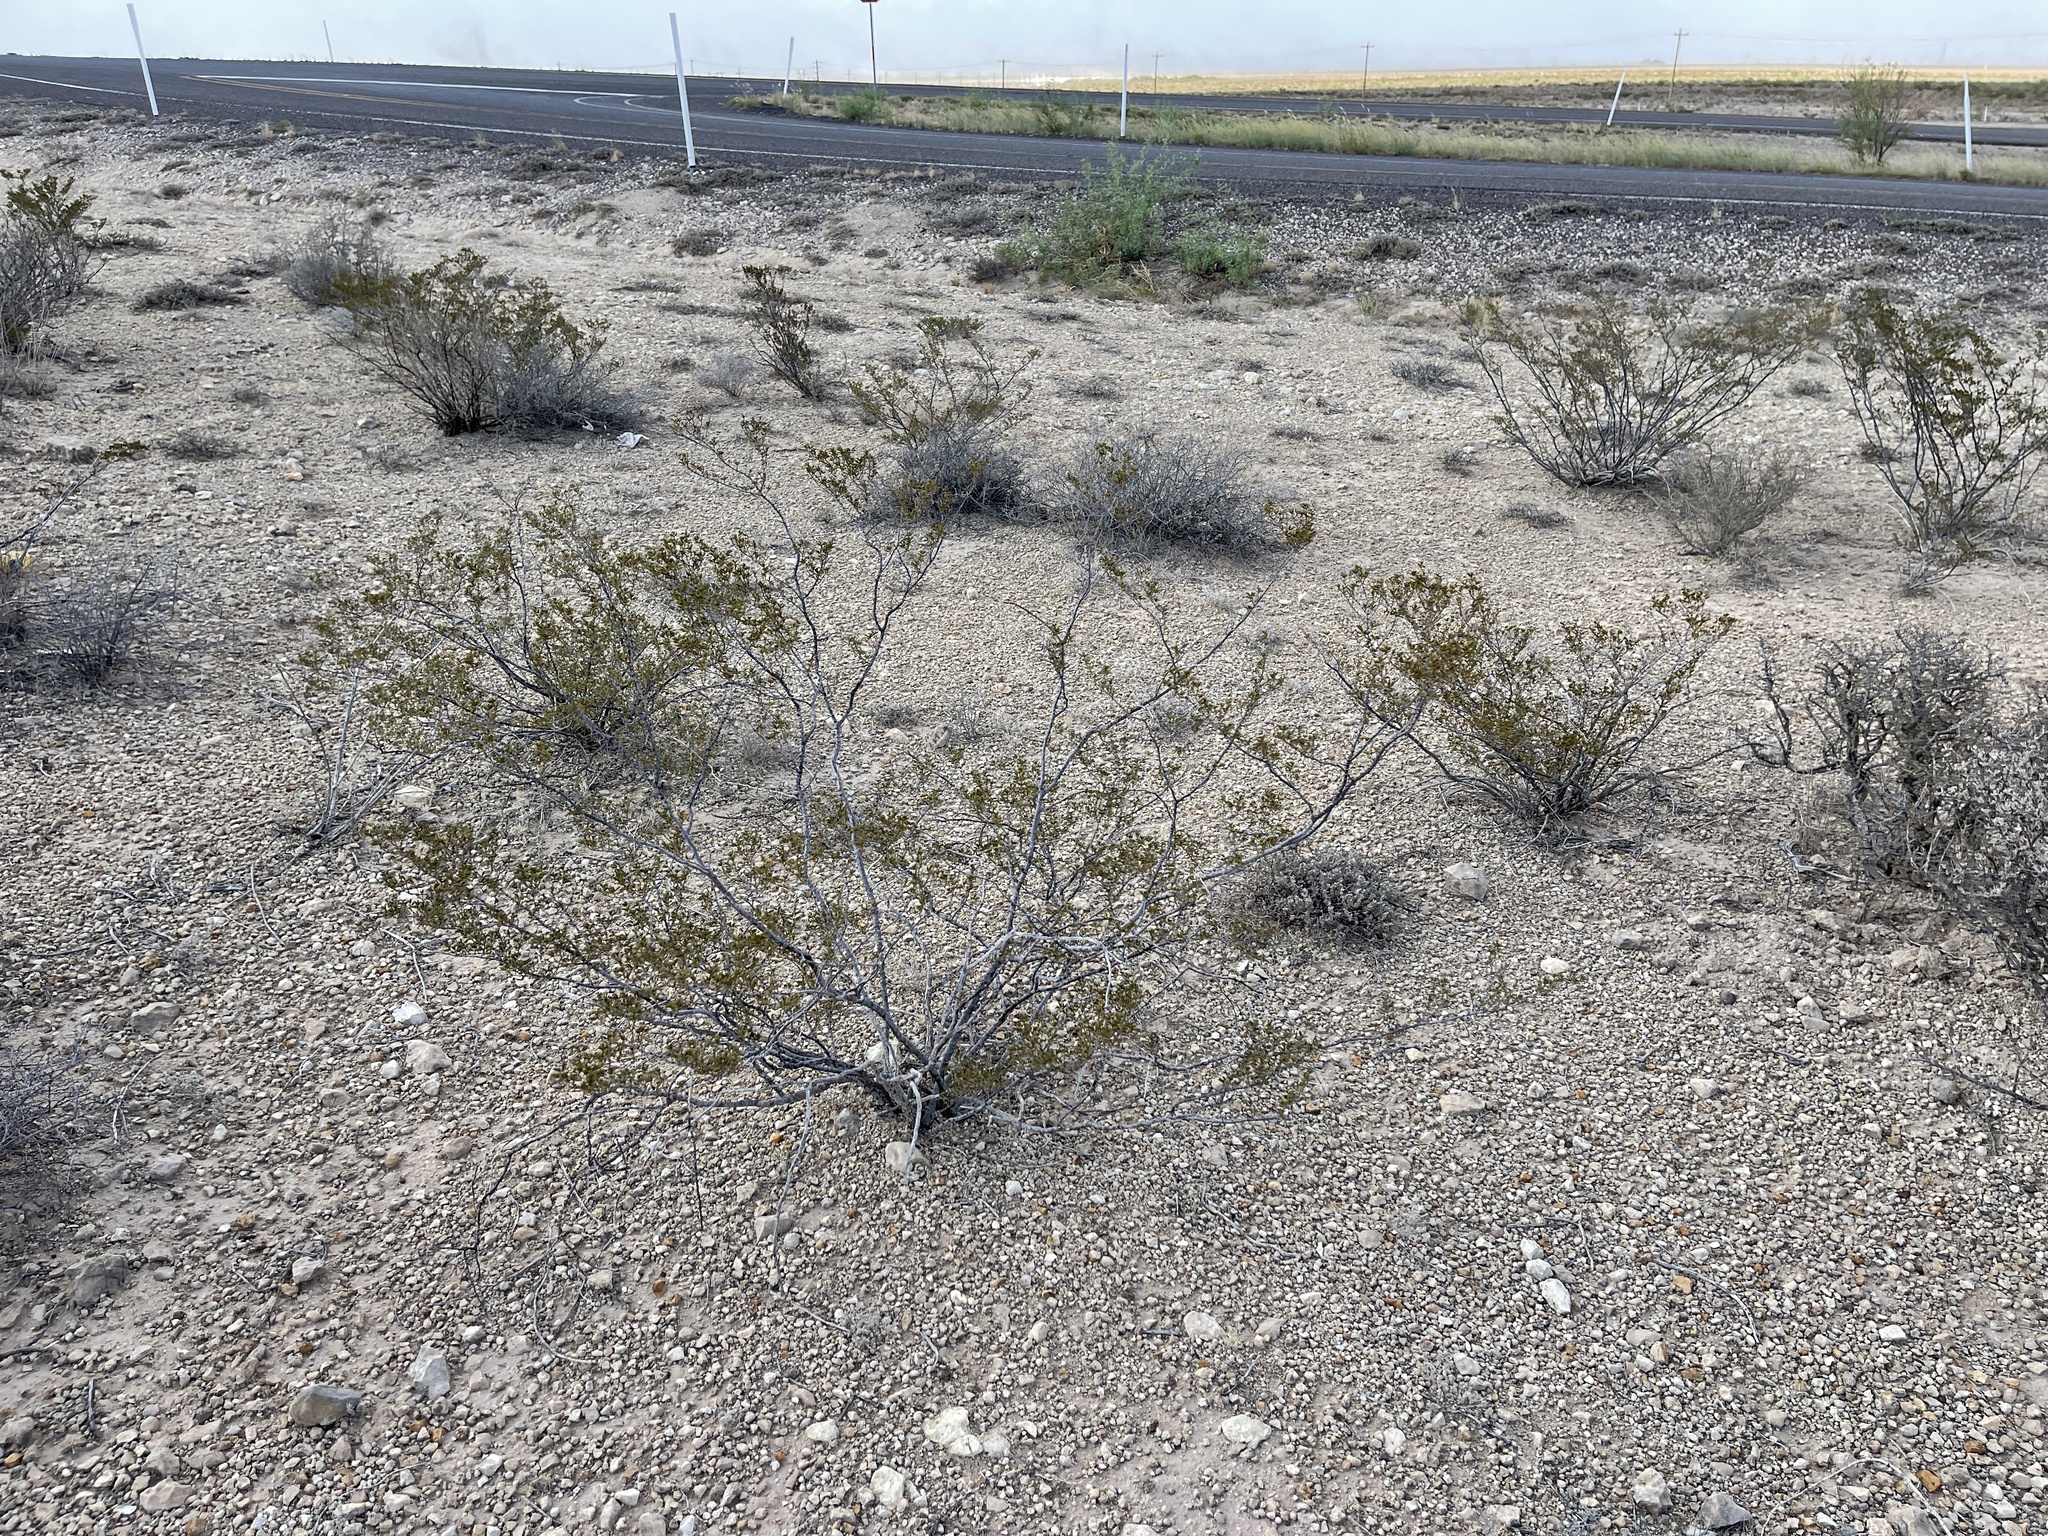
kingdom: Plantae
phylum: Tracheophyta
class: Magnoliopsida
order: Zygophyllales
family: Zygophyllaceae
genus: Larrea
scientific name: Larrea tridentata
